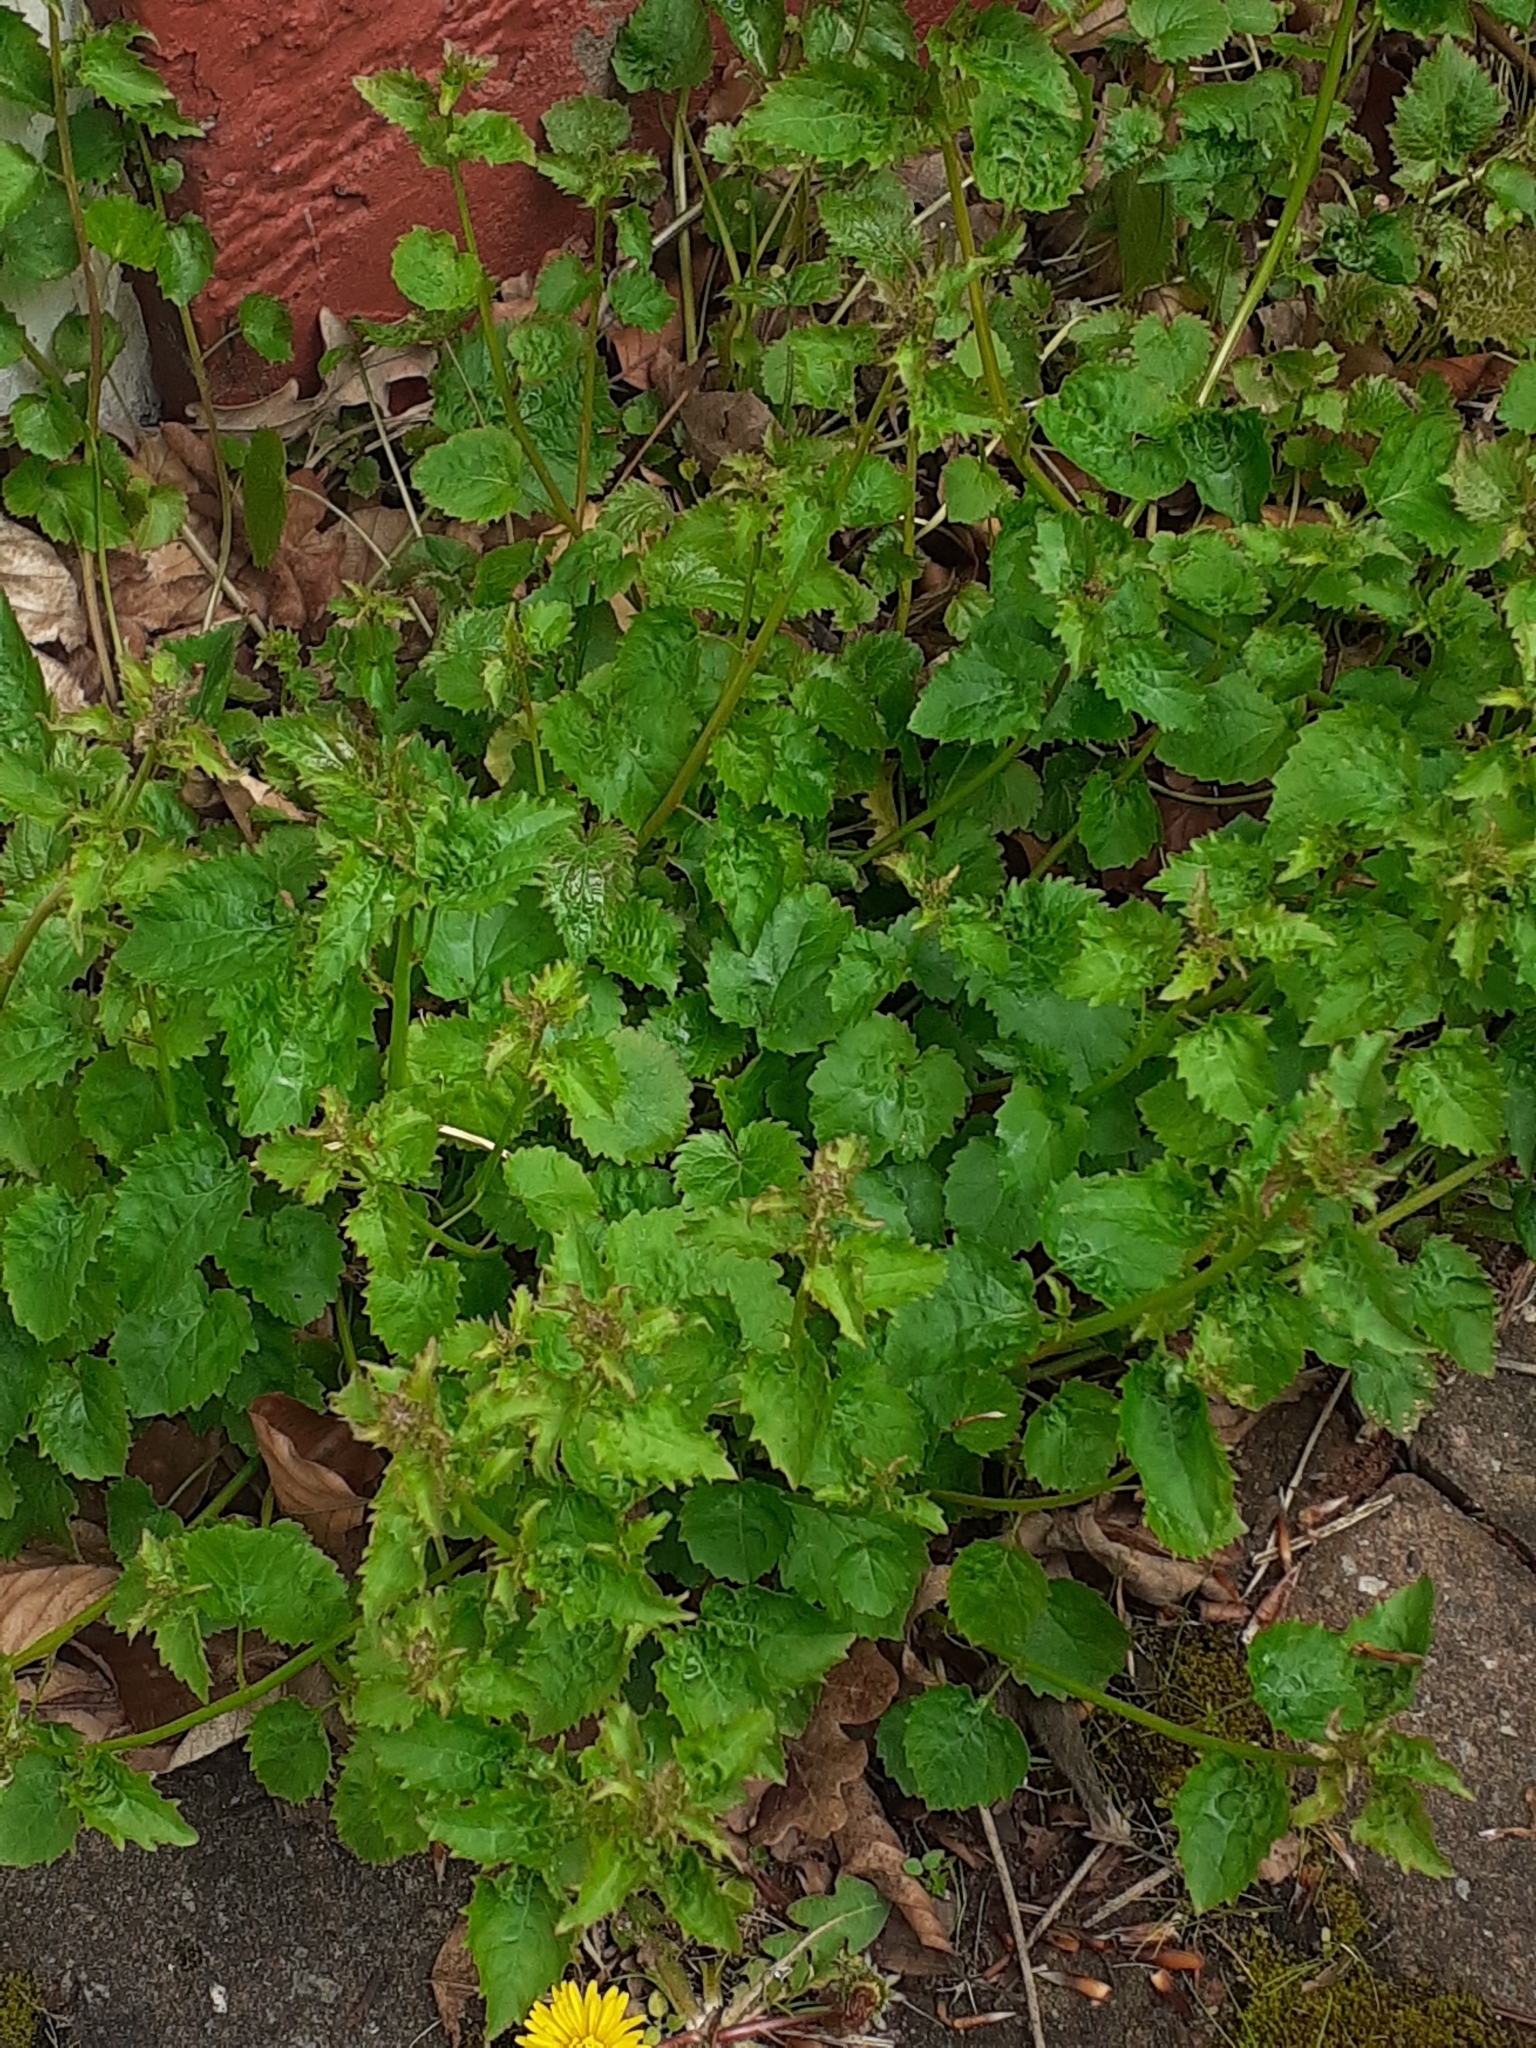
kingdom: Plantae
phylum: Tracheophyta
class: Magnoliopsida
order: Asterales
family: Campanulaceae
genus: Campanula
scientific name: Campanula poscharskyana
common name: Trailing bellflower
